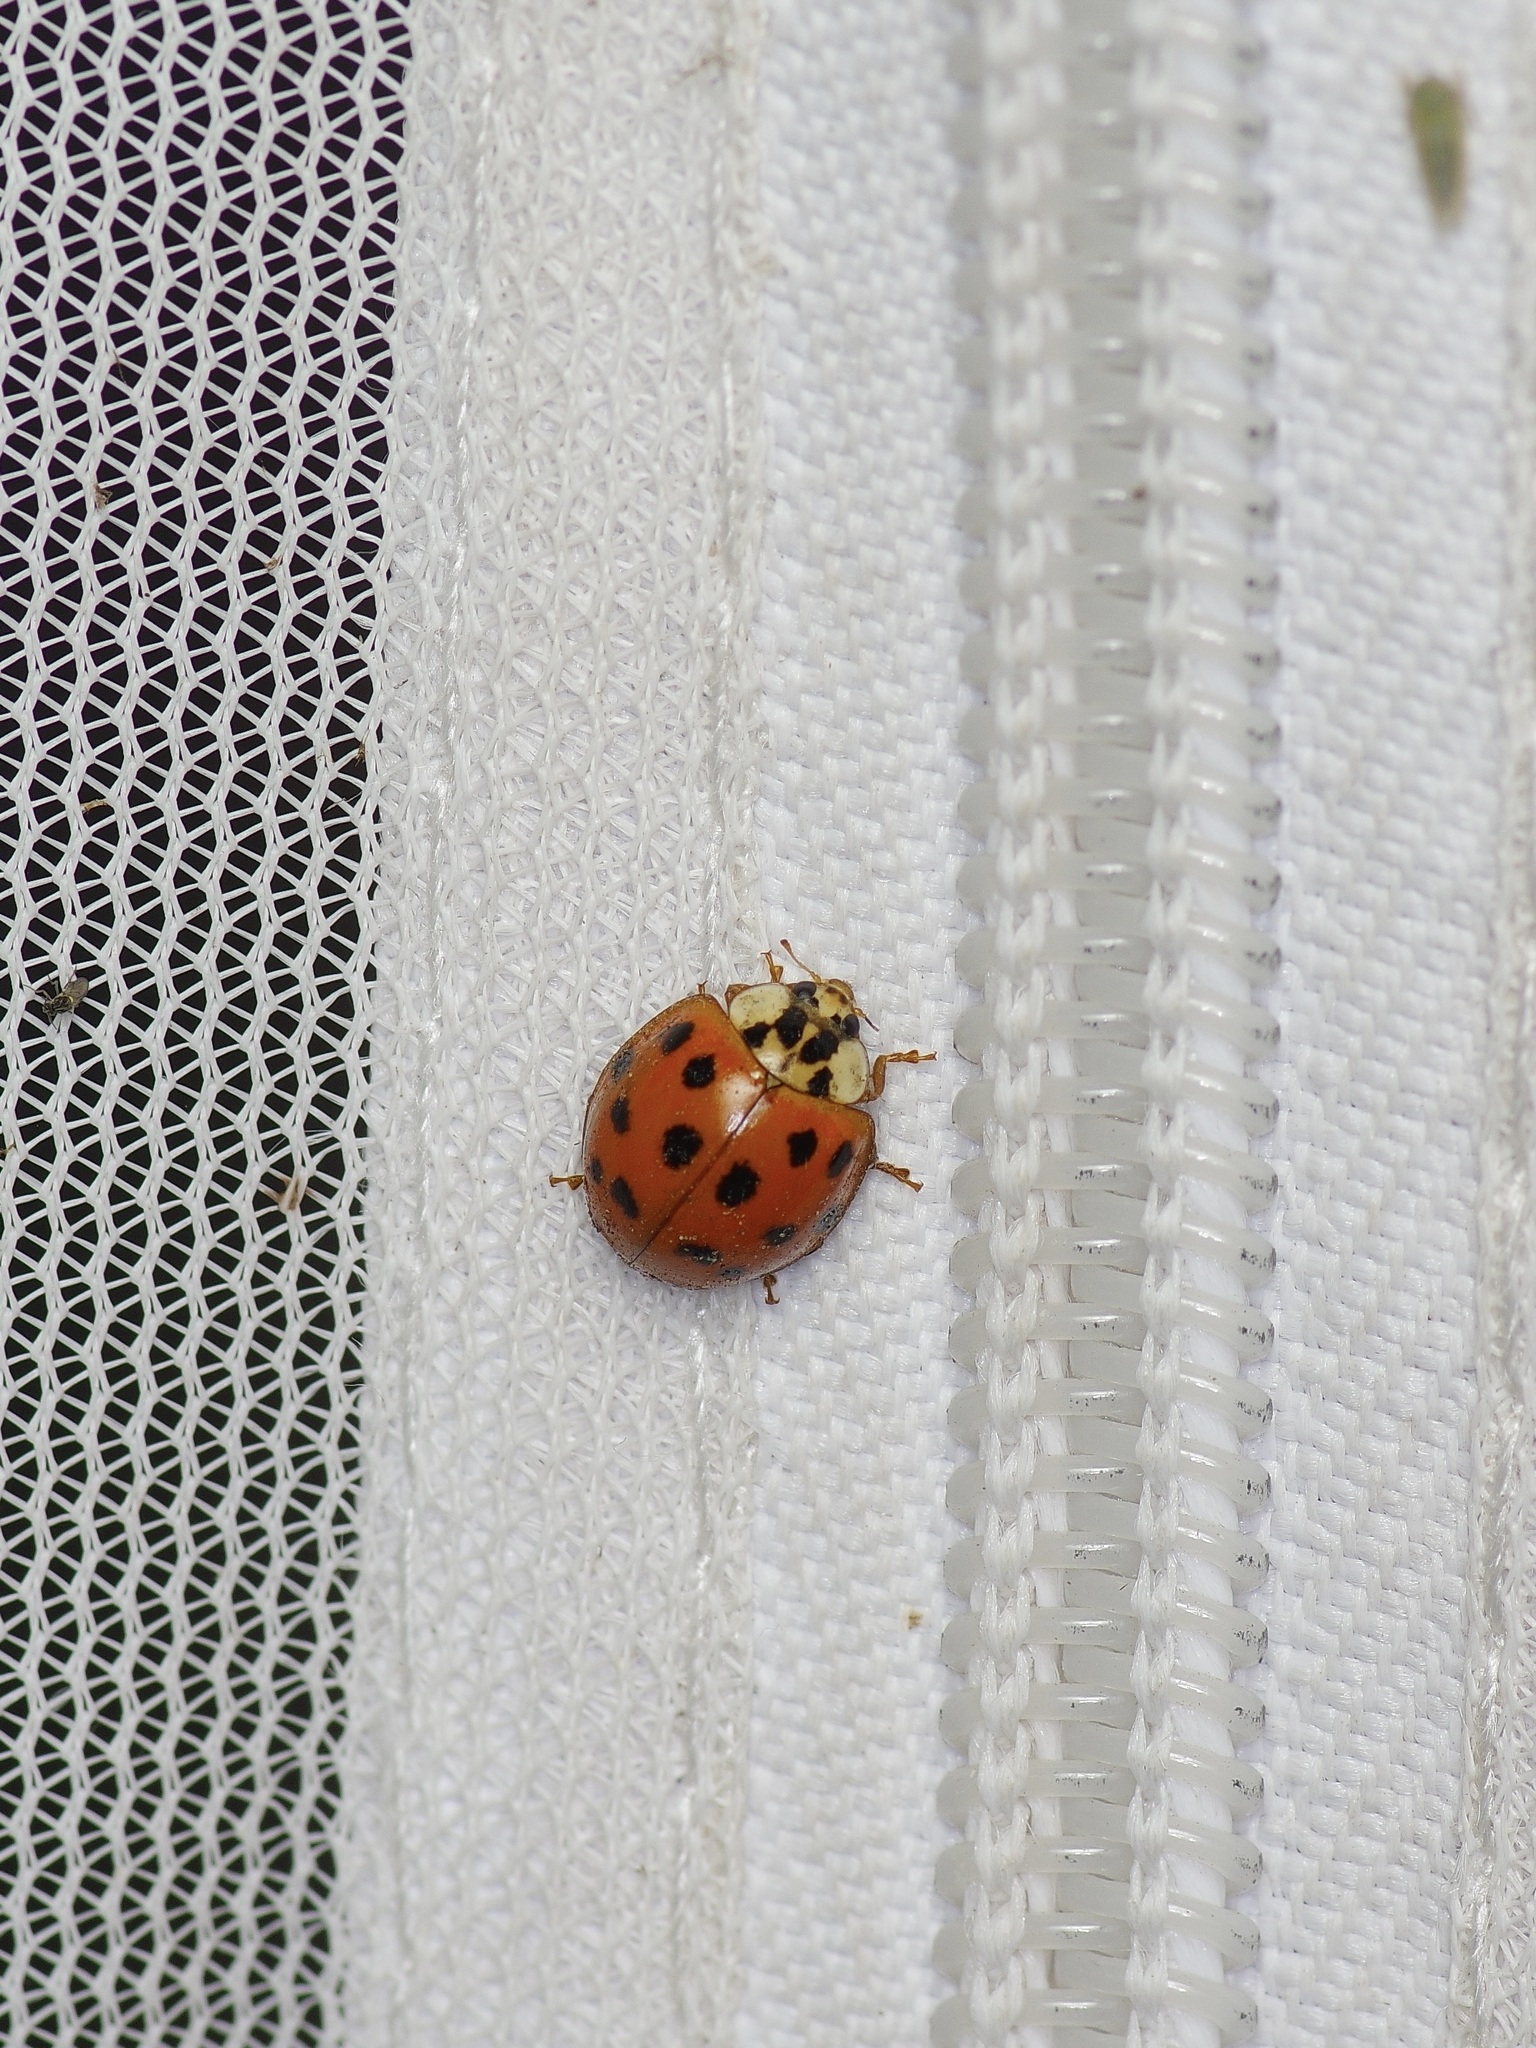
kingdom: Animalia
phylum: Arthropoda
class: Insecta
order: Coleoptera
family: Coccinellidae
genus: Harmonia
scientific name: Harmonia axyridis
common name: Harlequin ladybird
